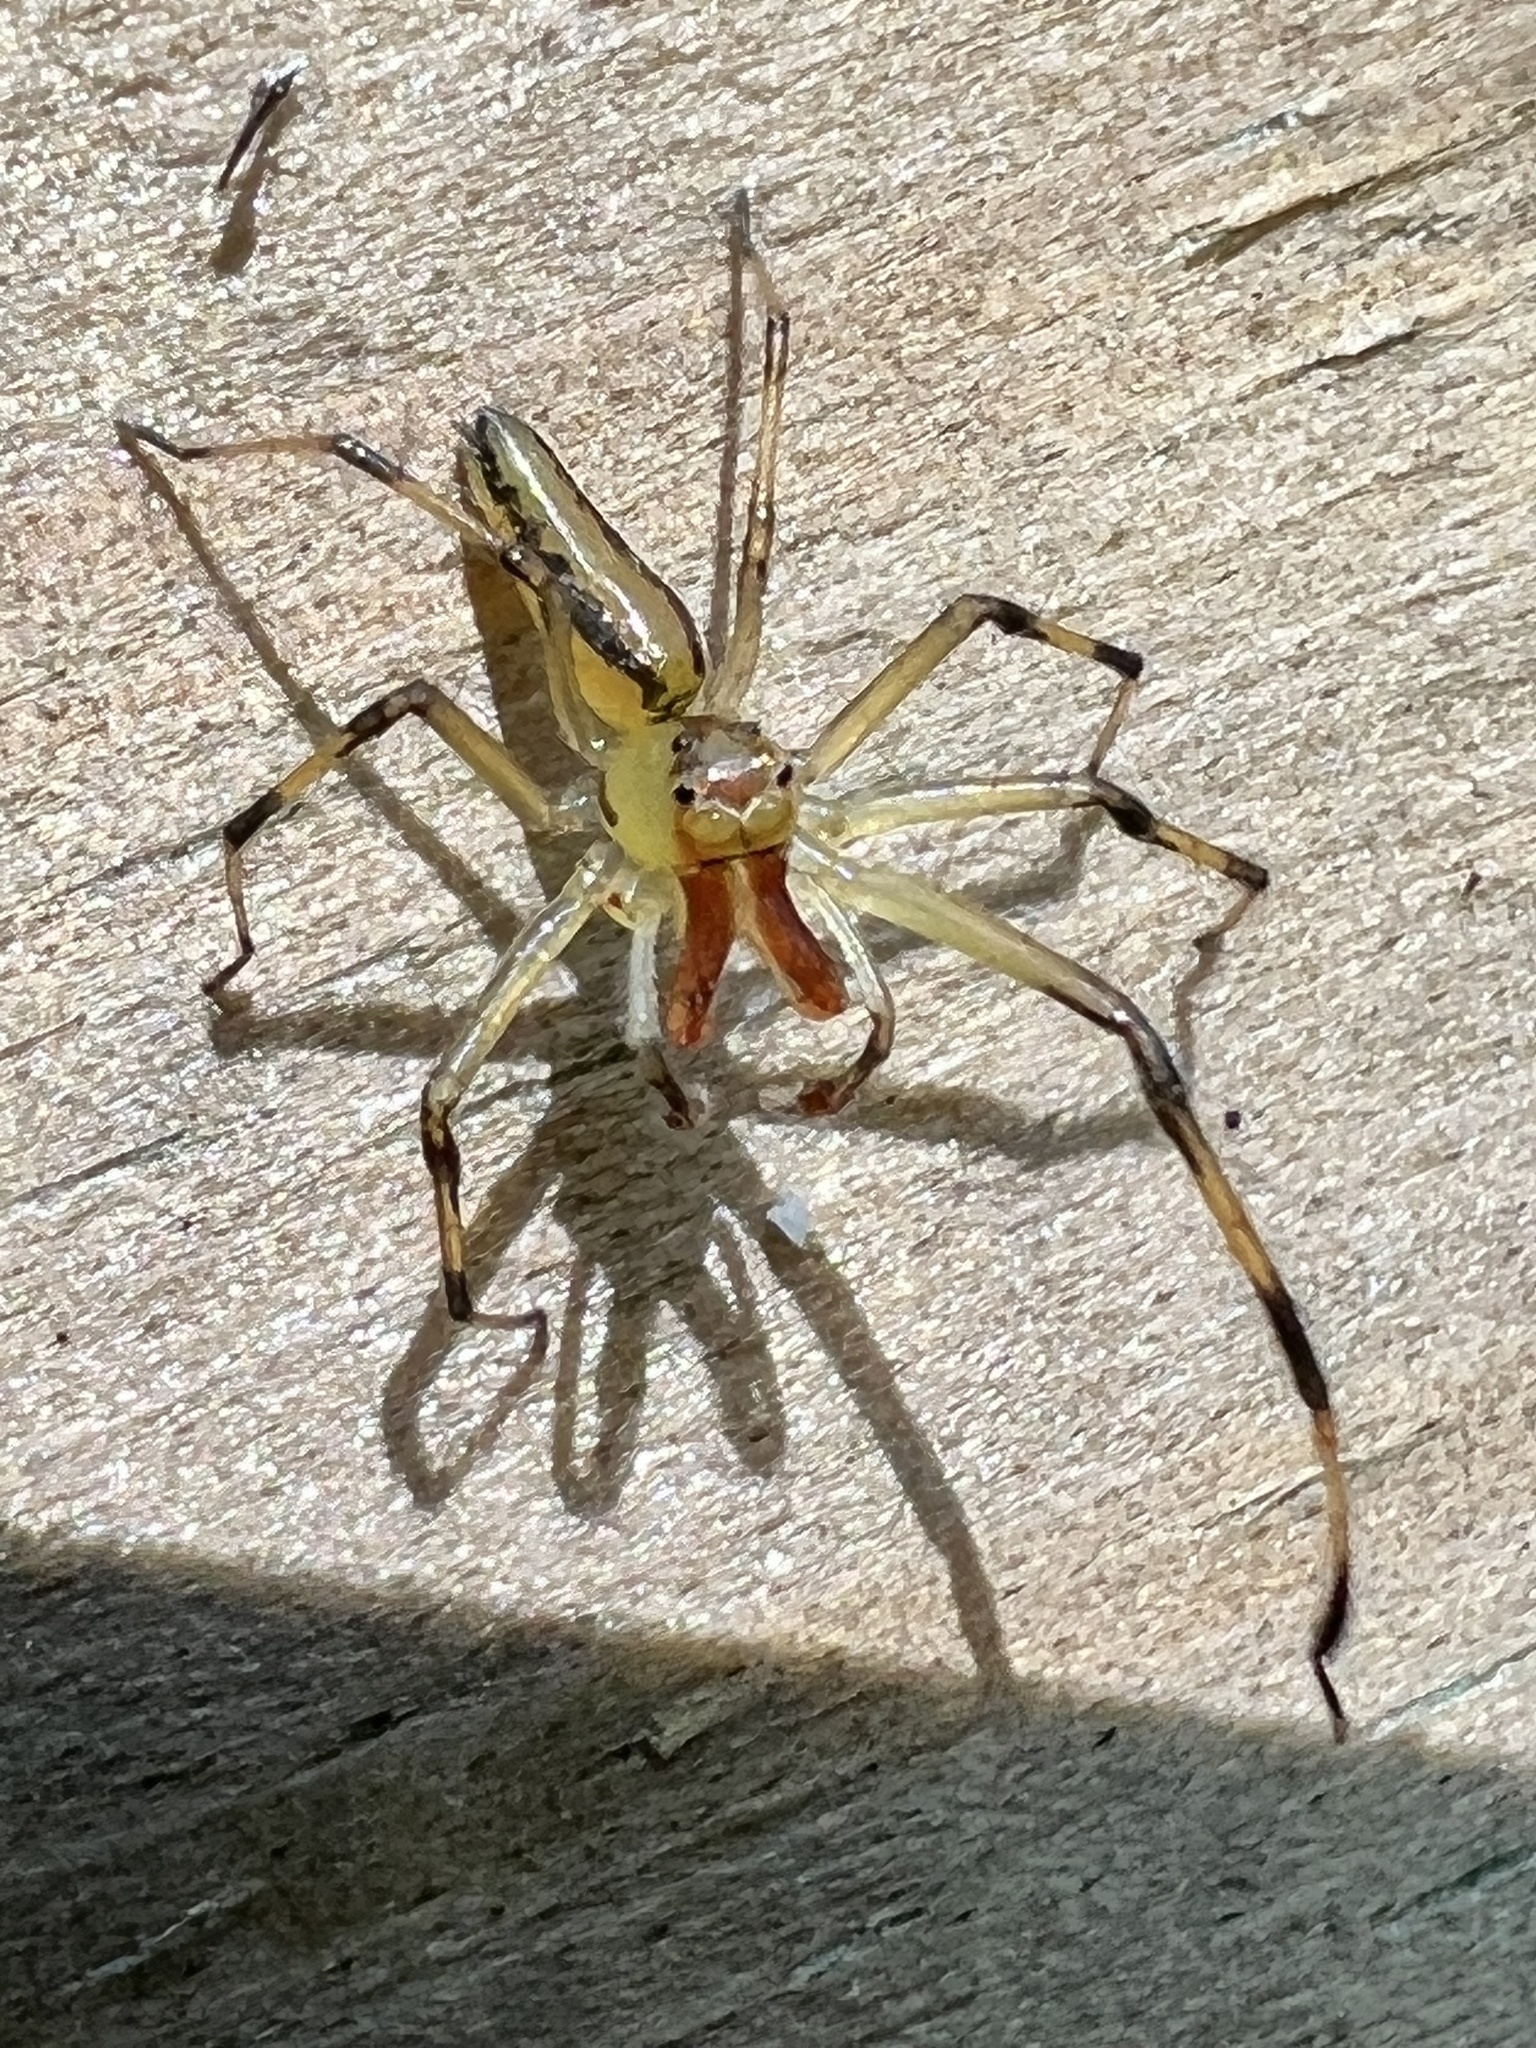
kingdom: Animalia
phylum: Arthropoda
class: Arachnida
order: Araneae
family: Salticidae
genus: Lyssomanes
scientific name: Lyssomanes viridis
